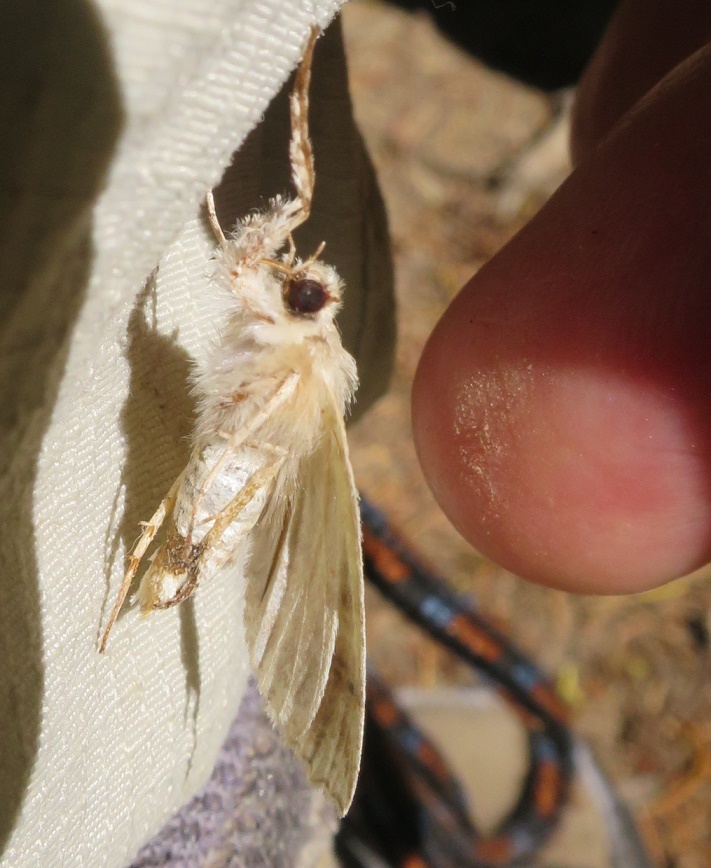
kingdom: Animalia
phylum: Arthropoda
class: Insecta
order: Lepidoptera
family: Geometridae
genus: Declana
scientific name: Declana floccosa
